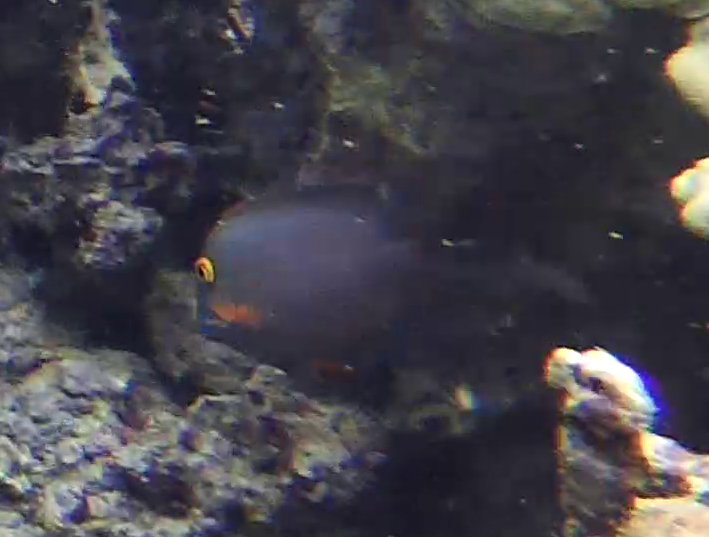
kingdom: Animalia
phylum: Chordata
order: Perciformes
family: Acanthuridae
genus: Ctenochaetus
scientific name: Ctenochaetus strigosus
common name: Bristletoothed surgeonfish
